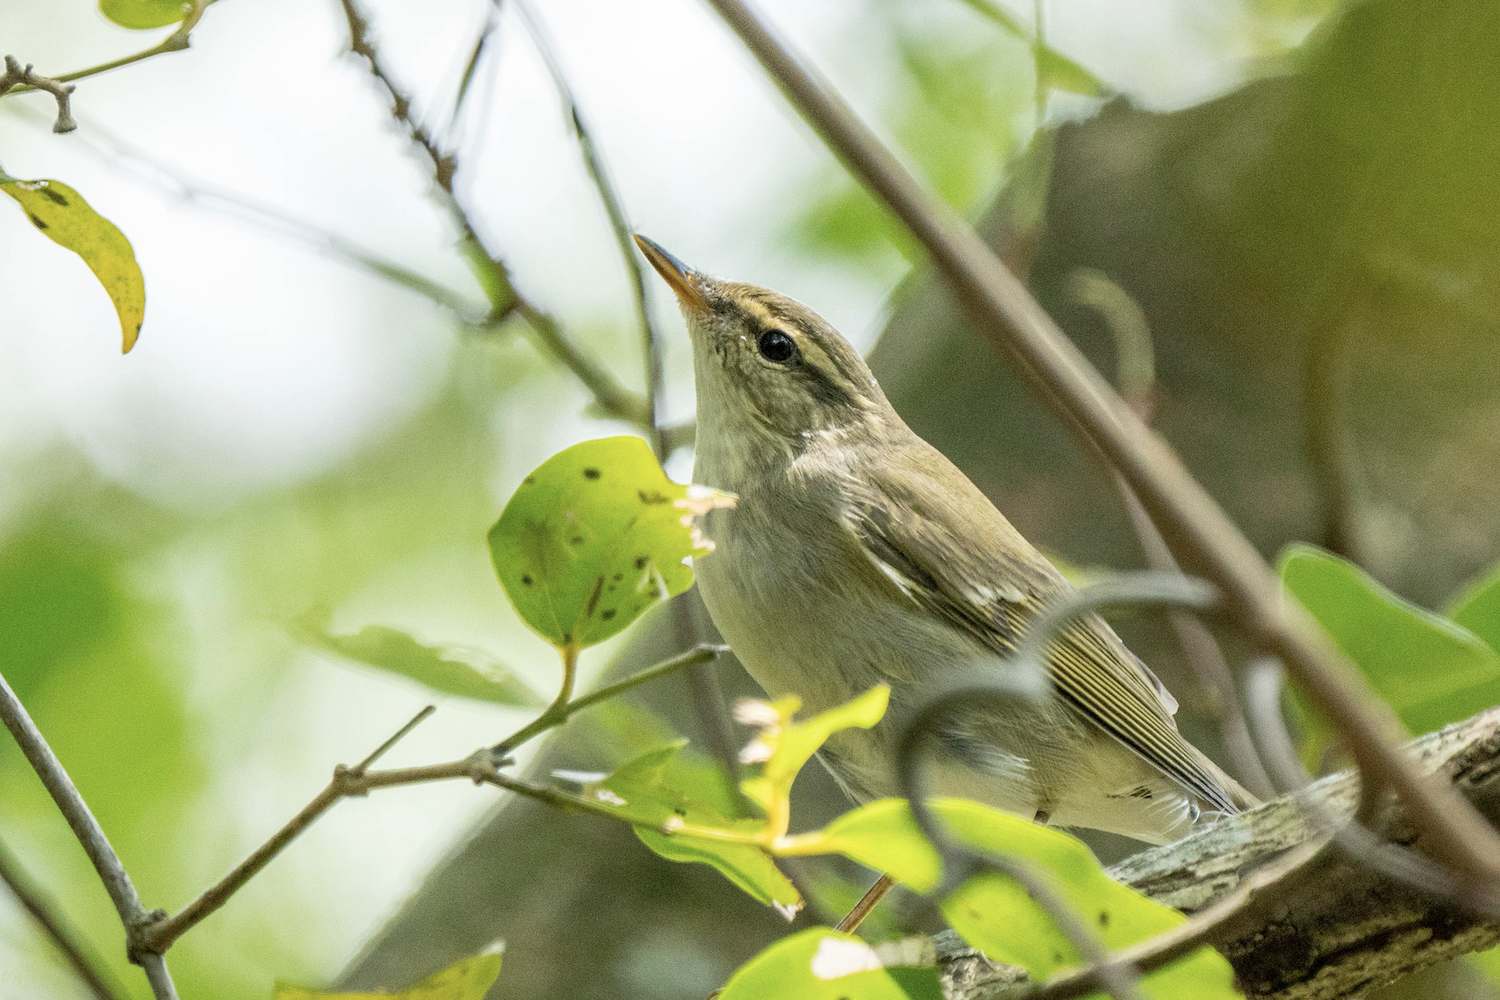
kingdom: Animalia
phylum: Chordata
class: Aves
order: Passeriformes
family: Phylloscopidae
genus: Phylloscopus
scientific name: Phylloscopus borealis
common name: Arctic warbler
